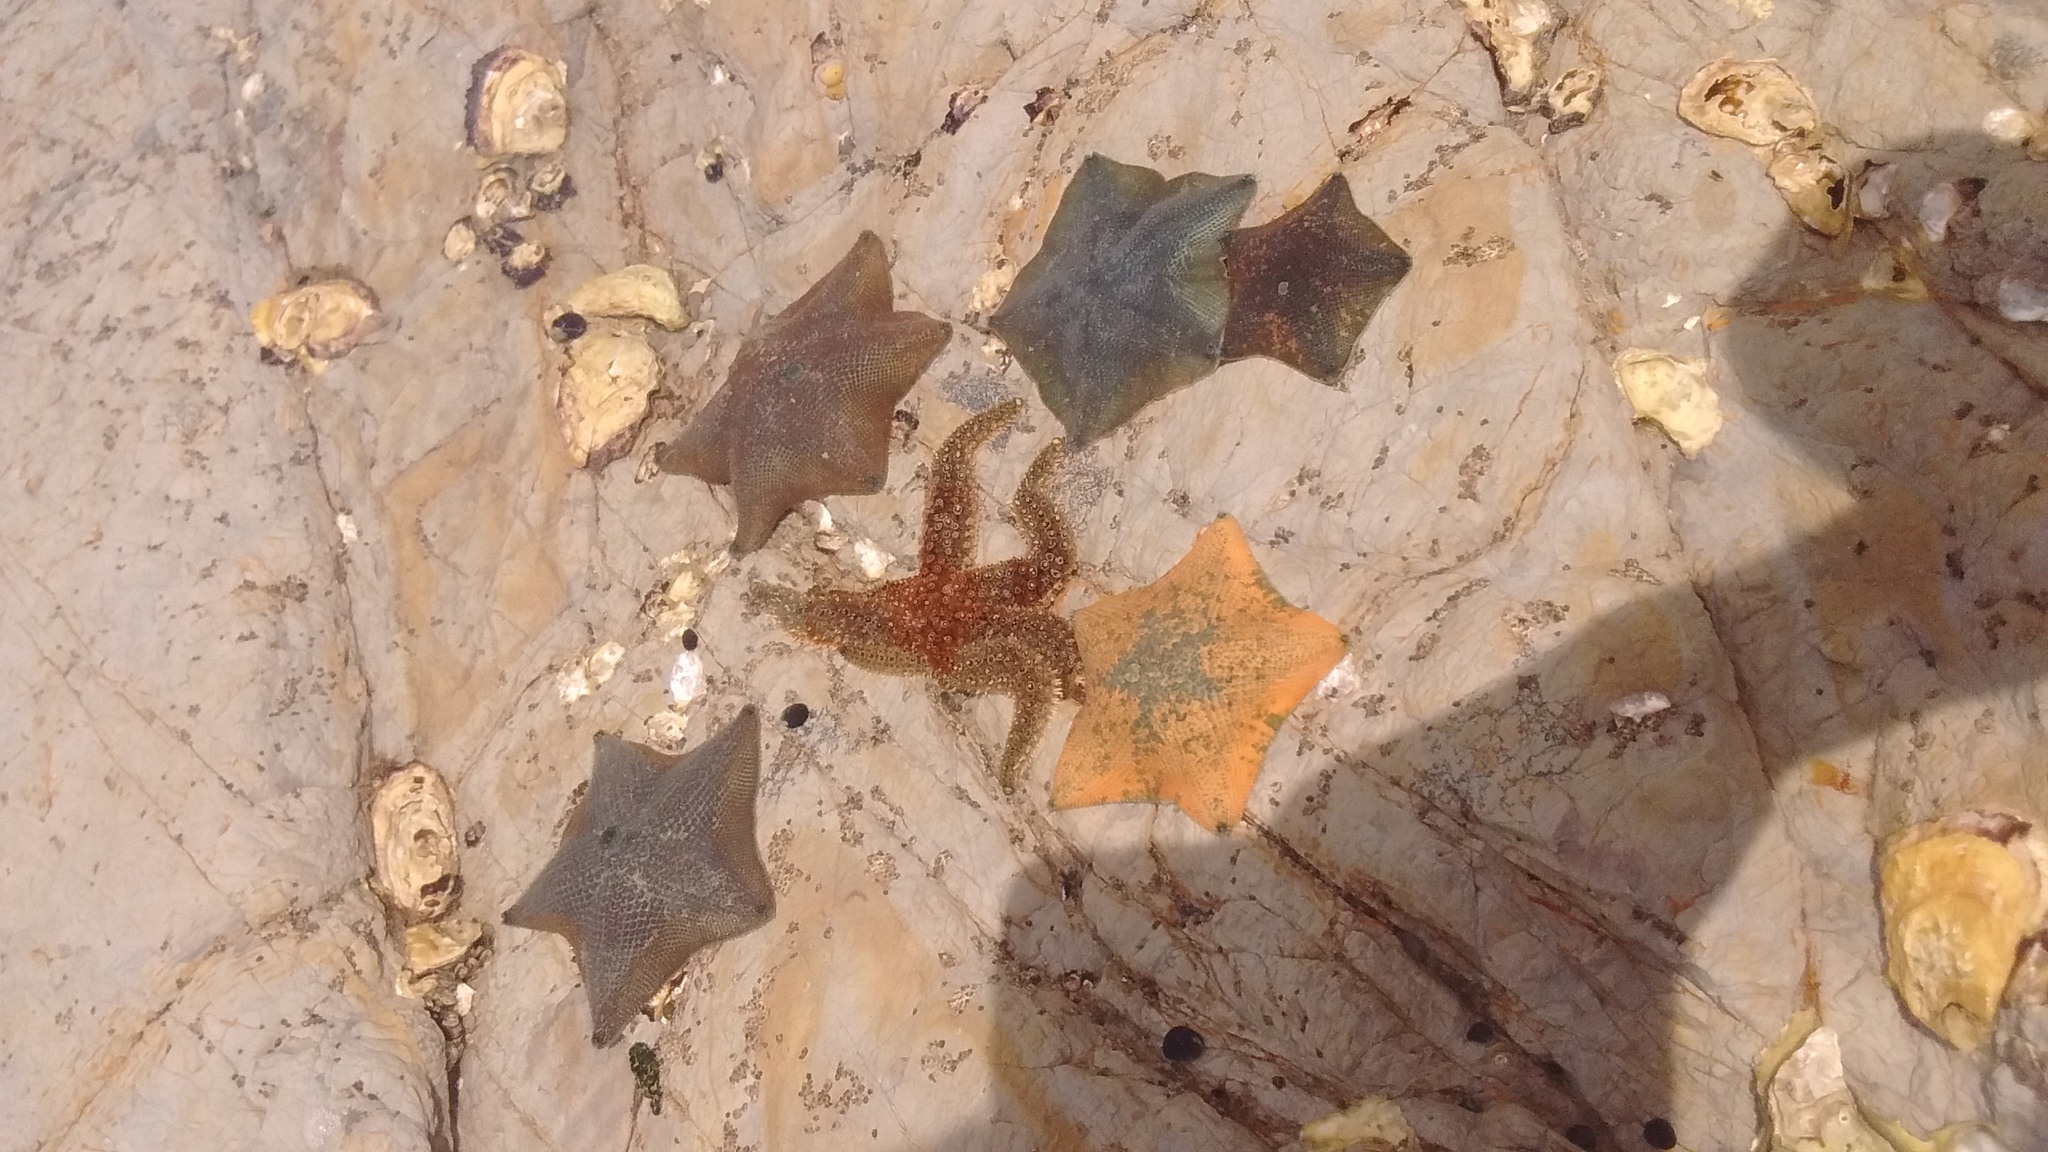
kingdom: Animalia
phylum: Echinodermata
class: Asteroidea
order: Valvatida
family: Asterinidae
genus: Patiriella
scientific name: Patiriella regularis
